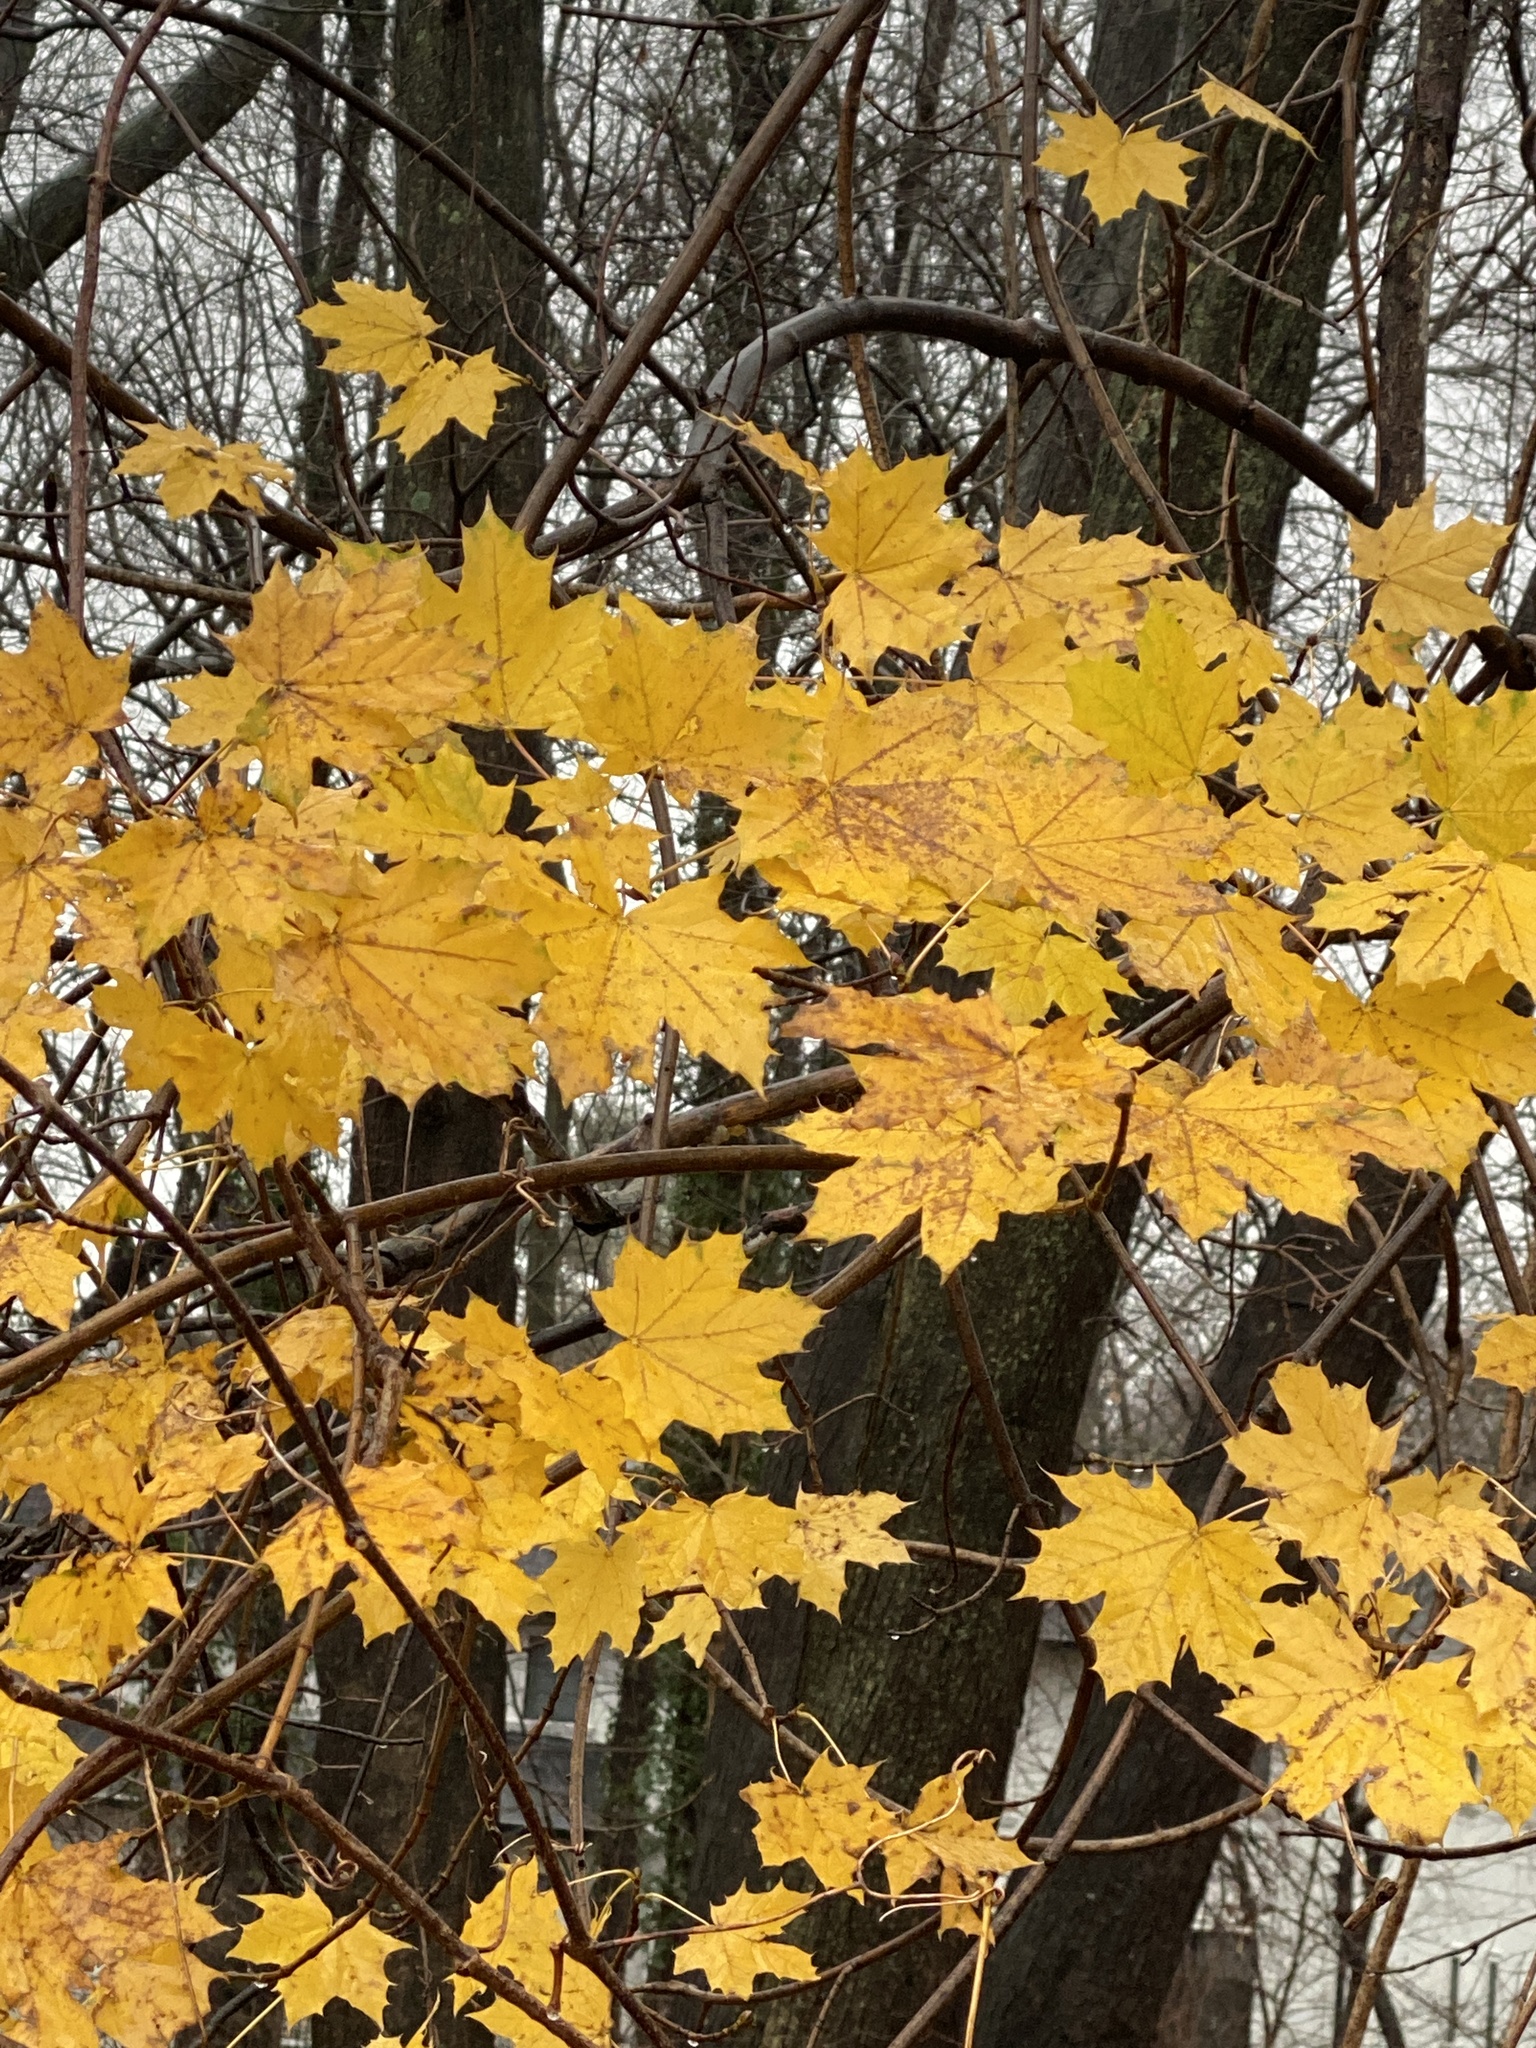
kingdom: Plantae
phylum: Tracheophyta
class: Magnoliopsida
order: Sapindales
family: Sapindaceae
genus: Acer
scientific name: Acer platanoides
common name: Norway maple
